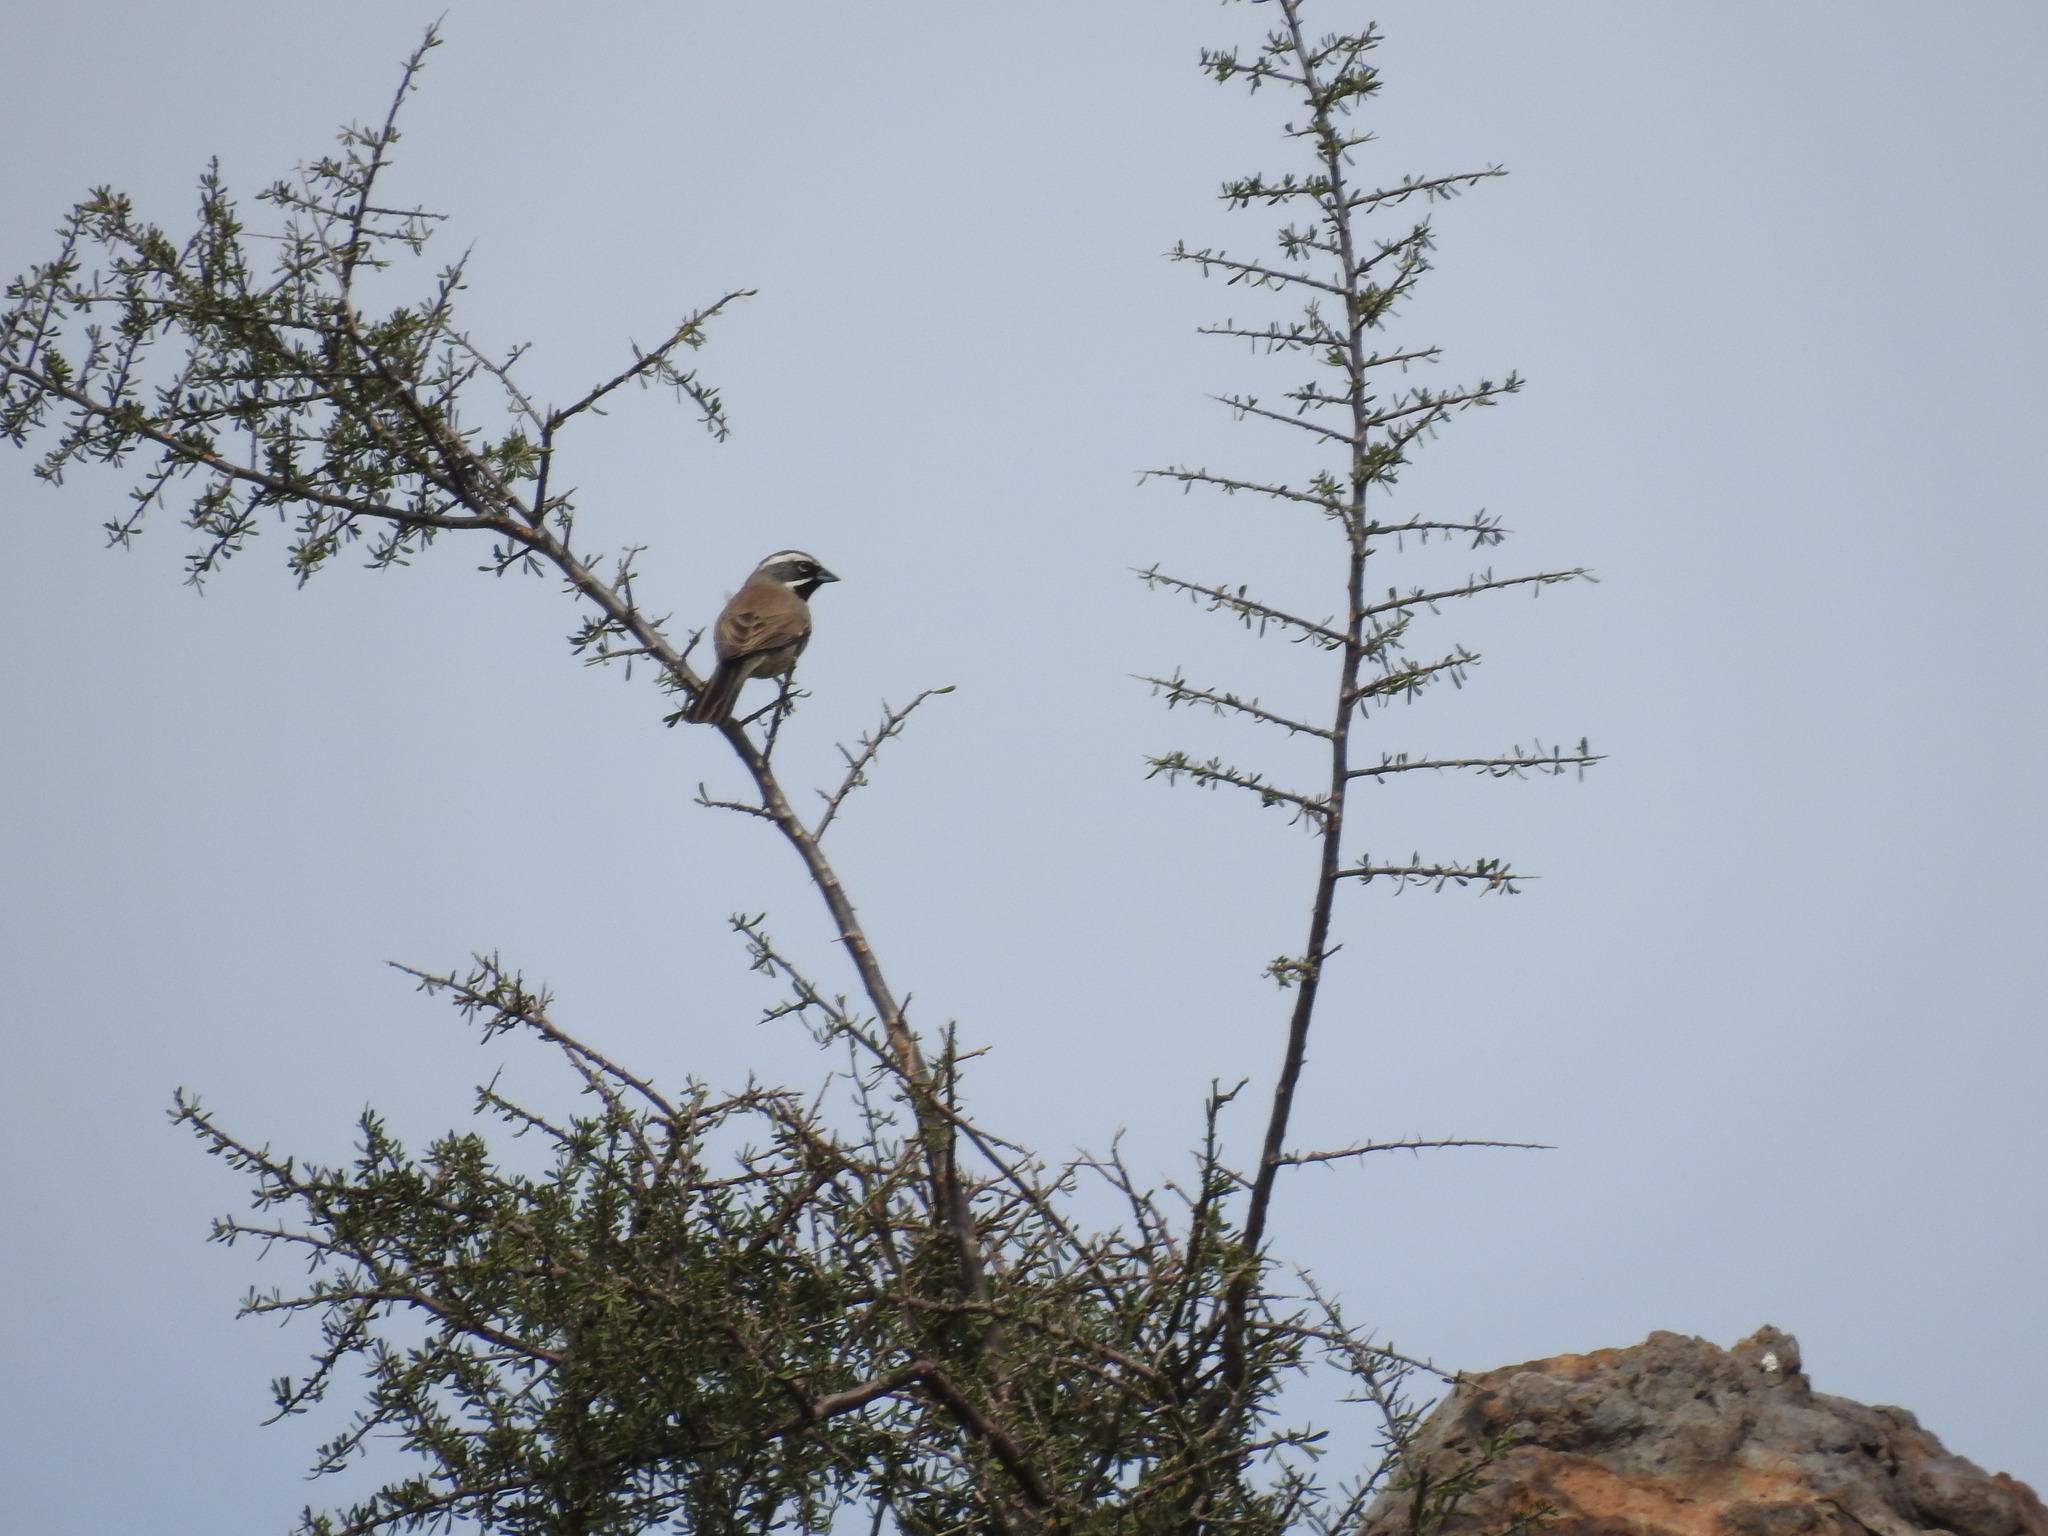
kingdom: Animalia
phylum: Chordata
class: Aves
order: Passeriformes
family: Passerellidae
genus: Amphispiza
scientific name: Amphispiza bilineata
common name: Black-throated sparrow
